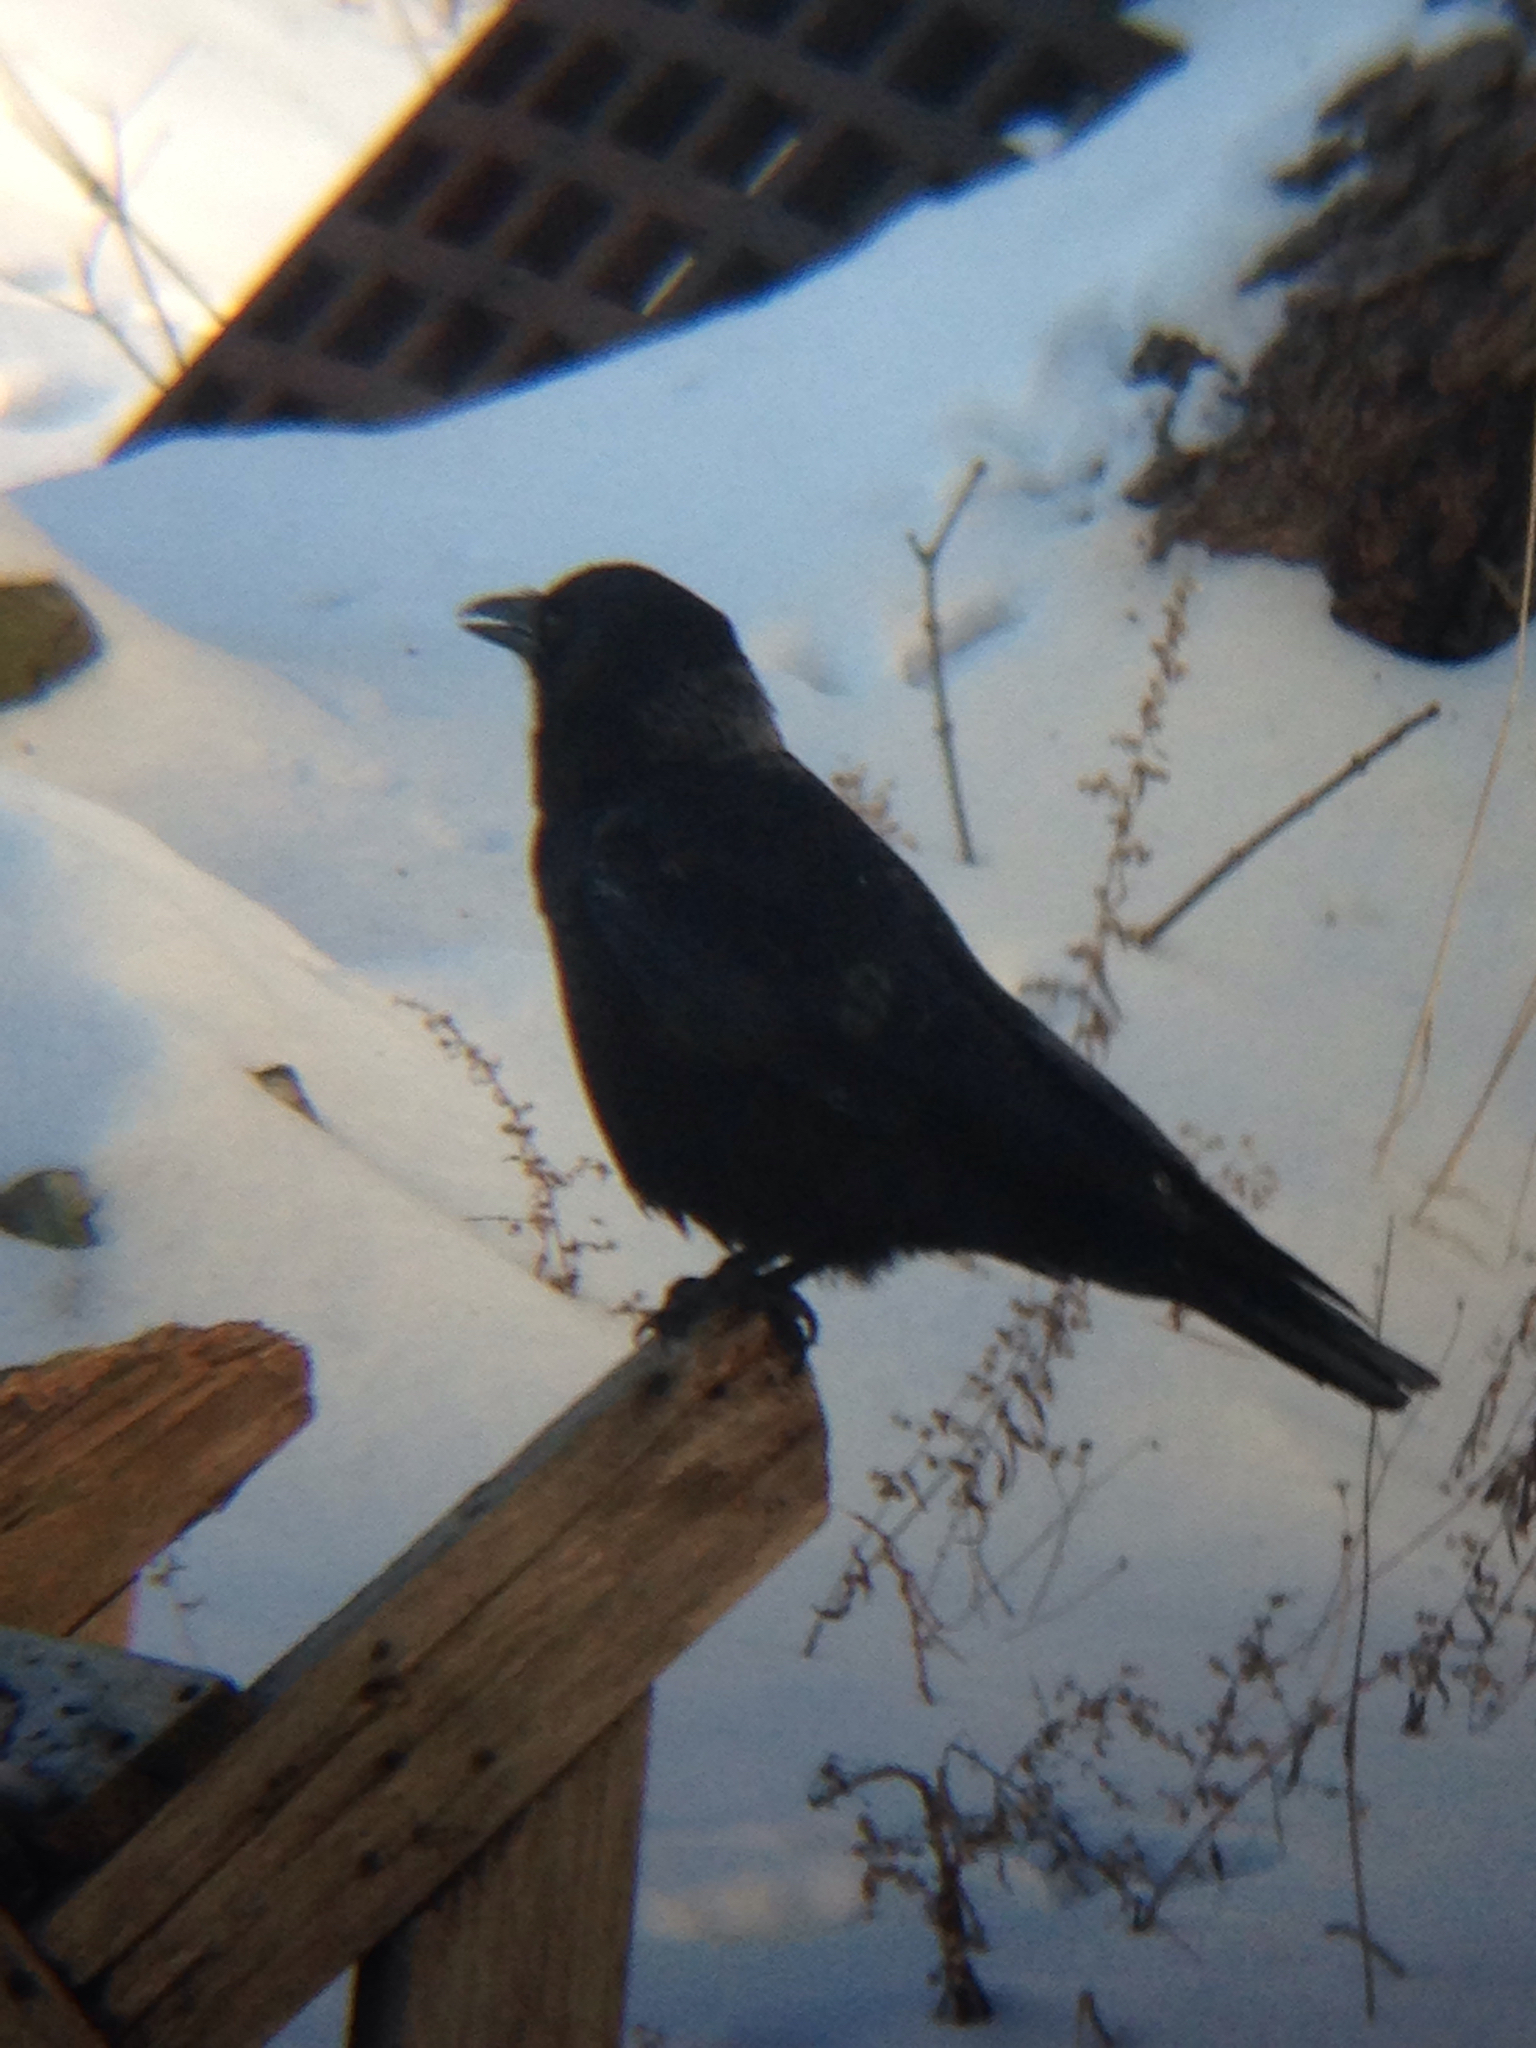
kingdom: Animalia
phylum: Chordata
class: Aves
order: Passeriformes
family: Corvidae
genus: Corvus
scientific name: Corvus brachyrhynchos
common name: American crow
